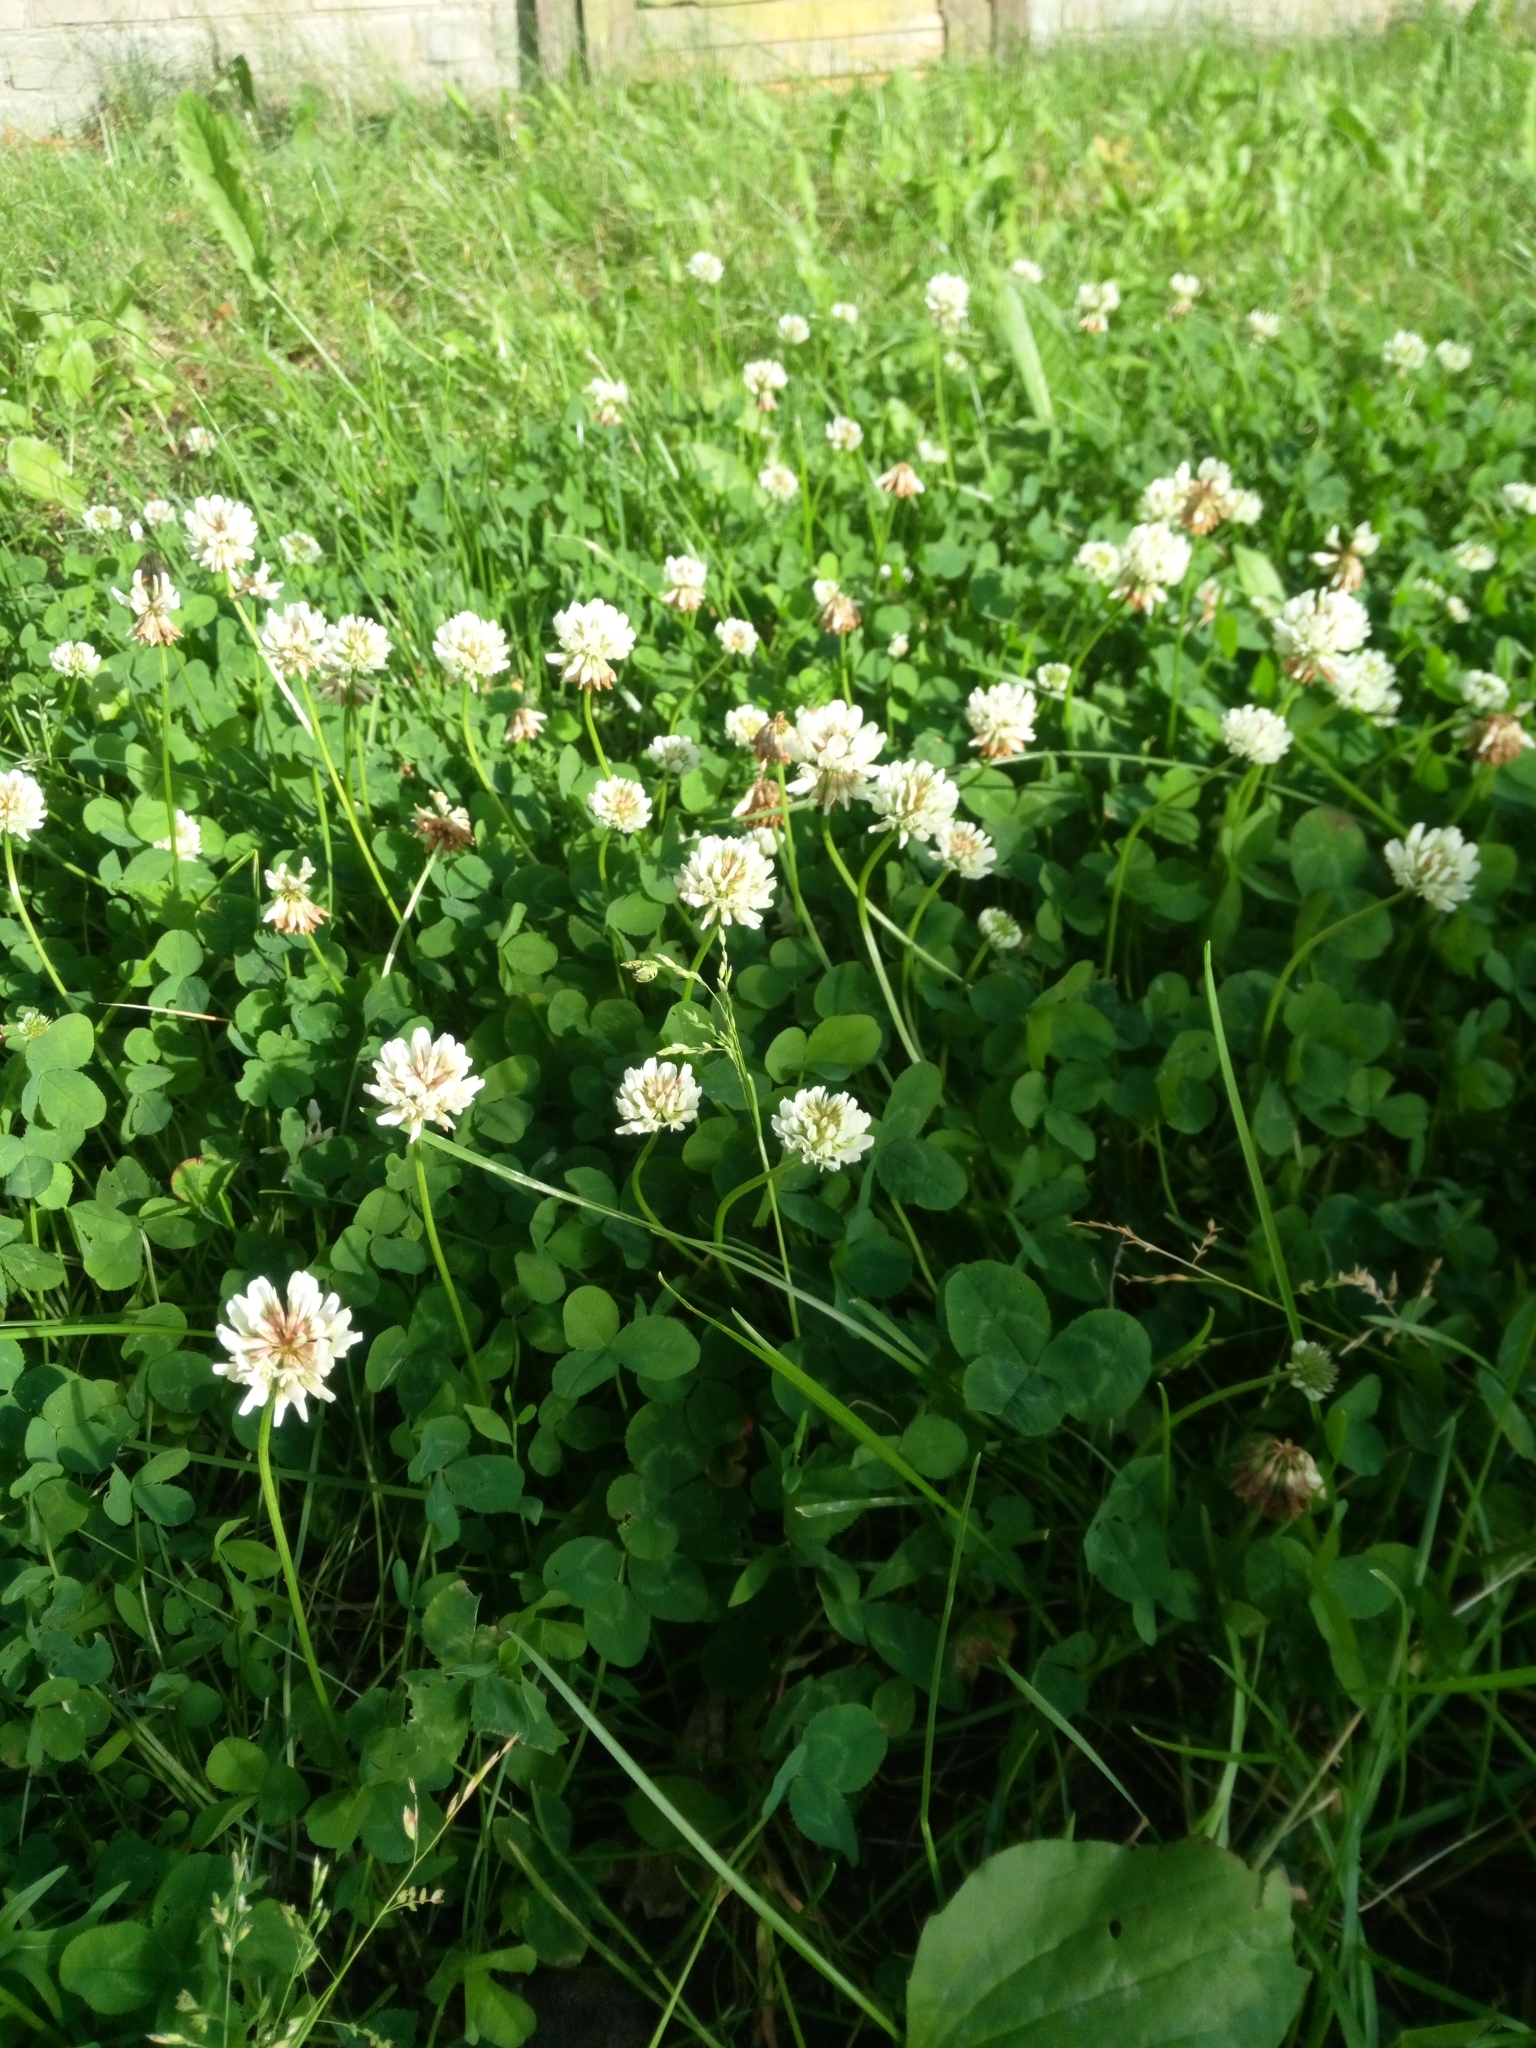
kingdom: Plantae
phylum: Tracheophyta
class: Magnoliopsida
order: Fabales
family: Fabaceae
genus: Trifolium
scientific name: Trifolium repens
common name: White clover
